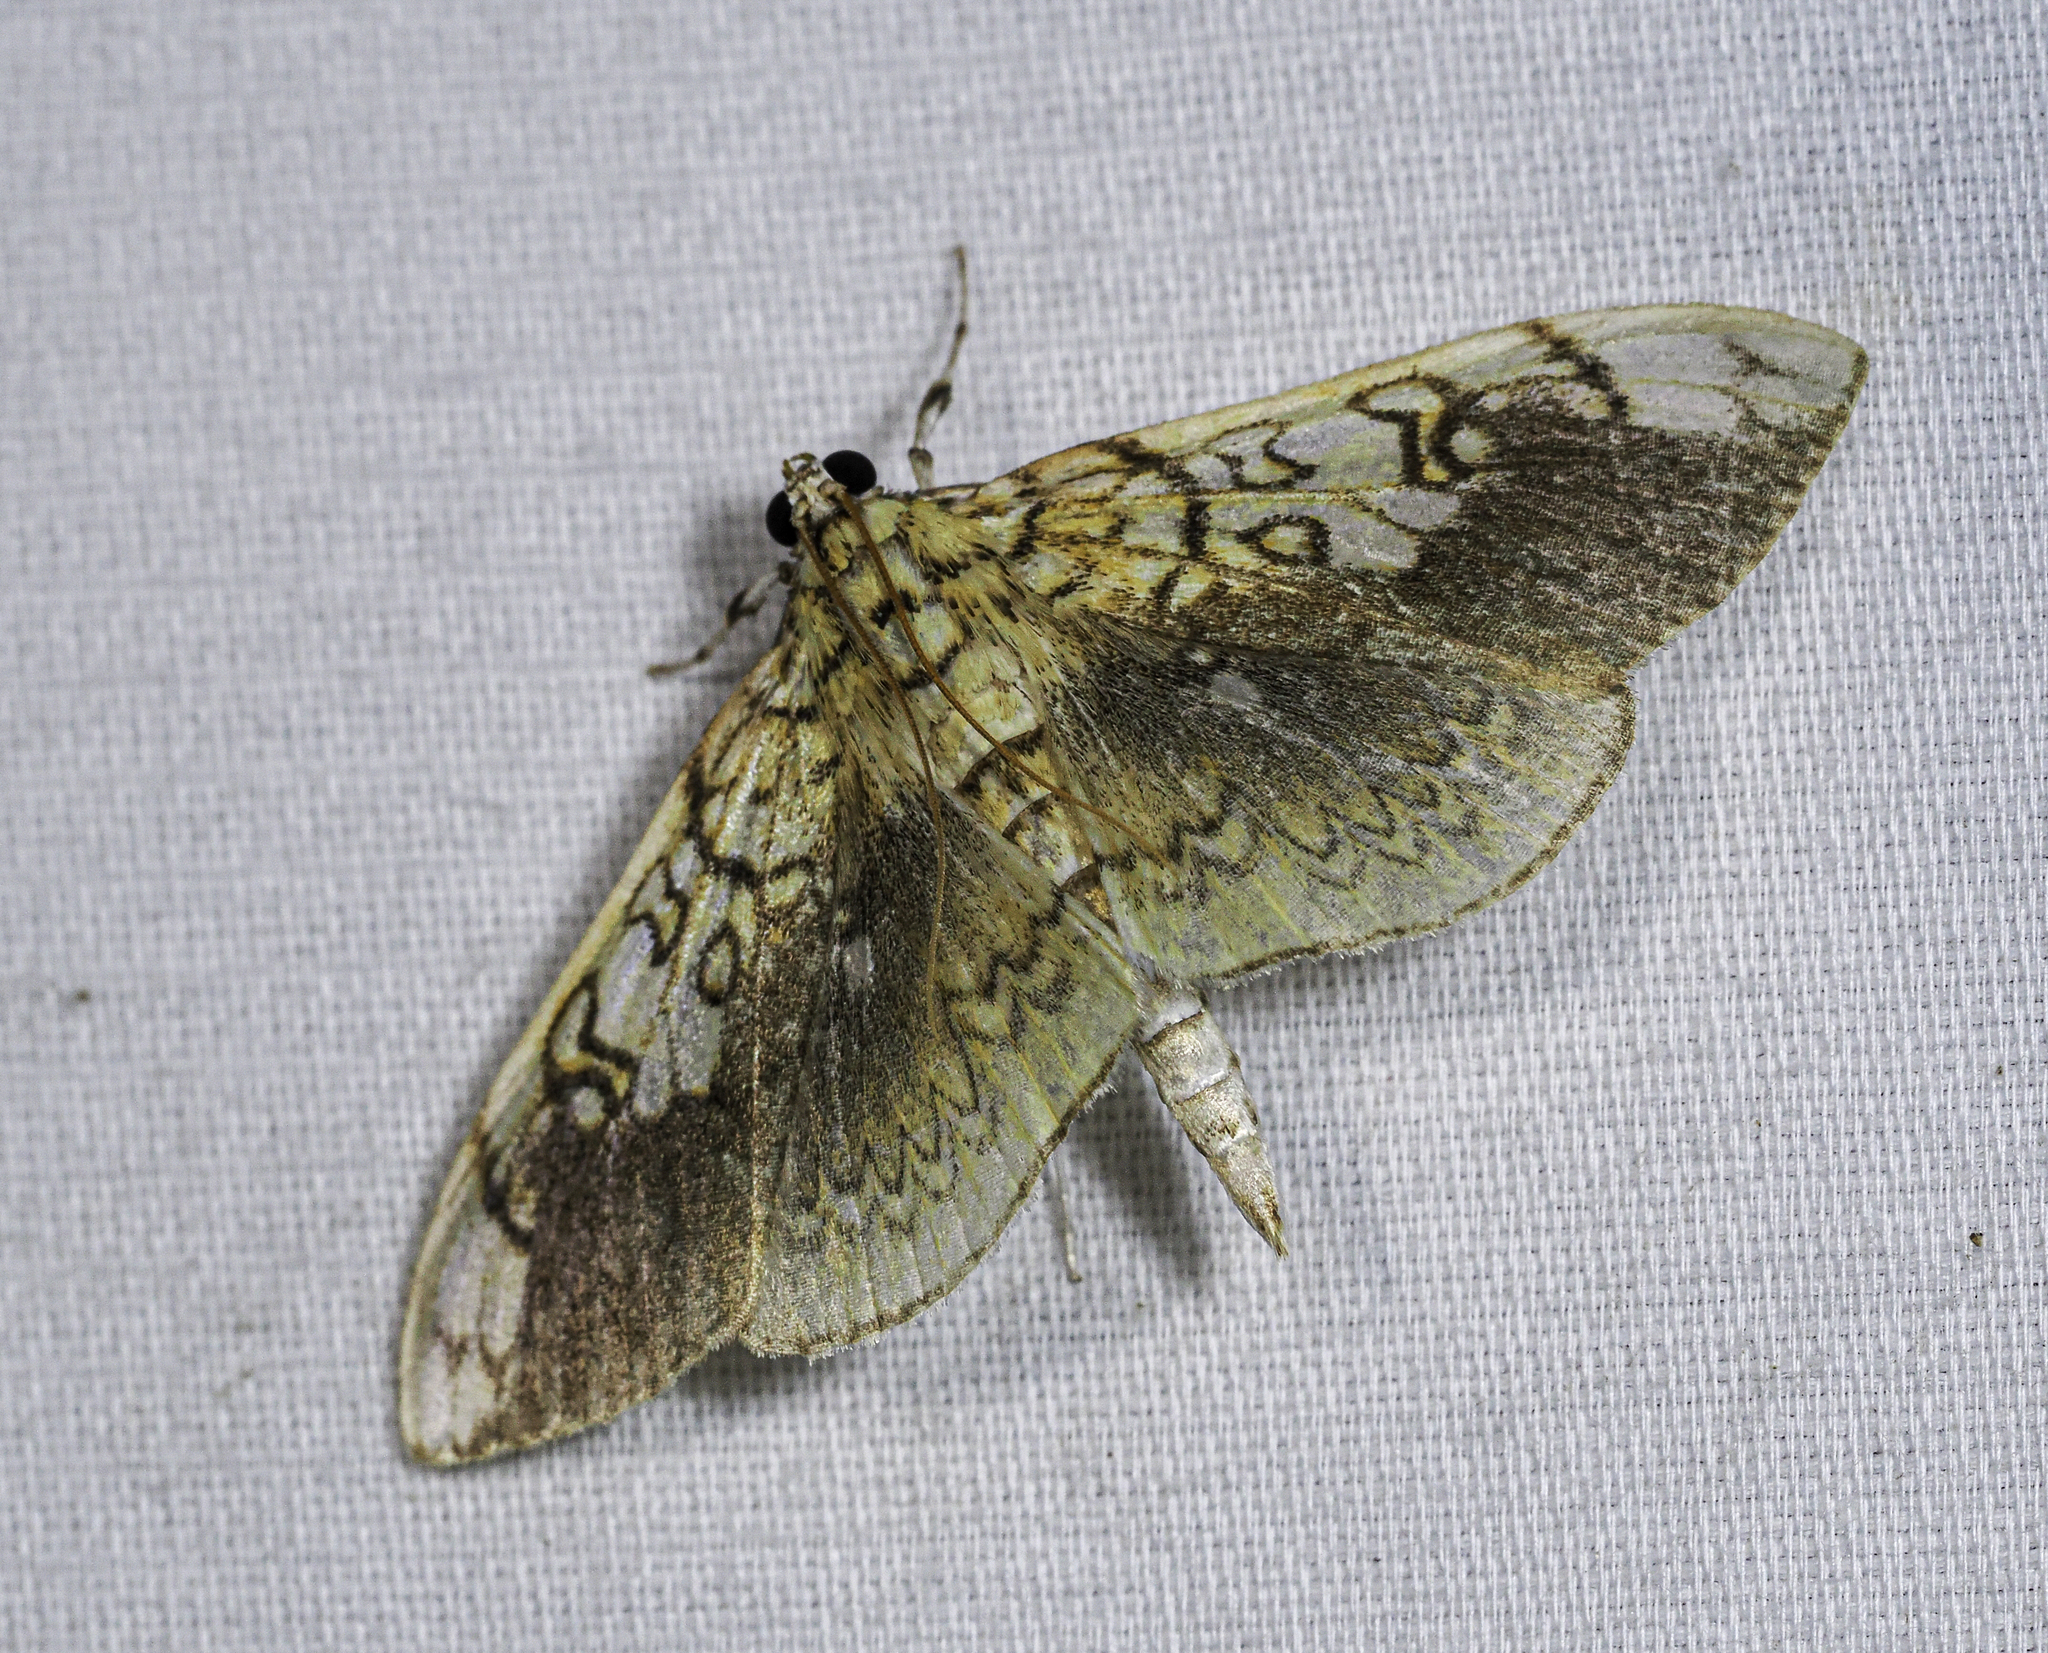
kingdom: Animalia
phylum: Arthropoda
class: Insecta
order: Lepidoptera
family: Crambidae
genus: Pantographa
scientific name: Pantographa limata
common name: Basswood leafroller moth
